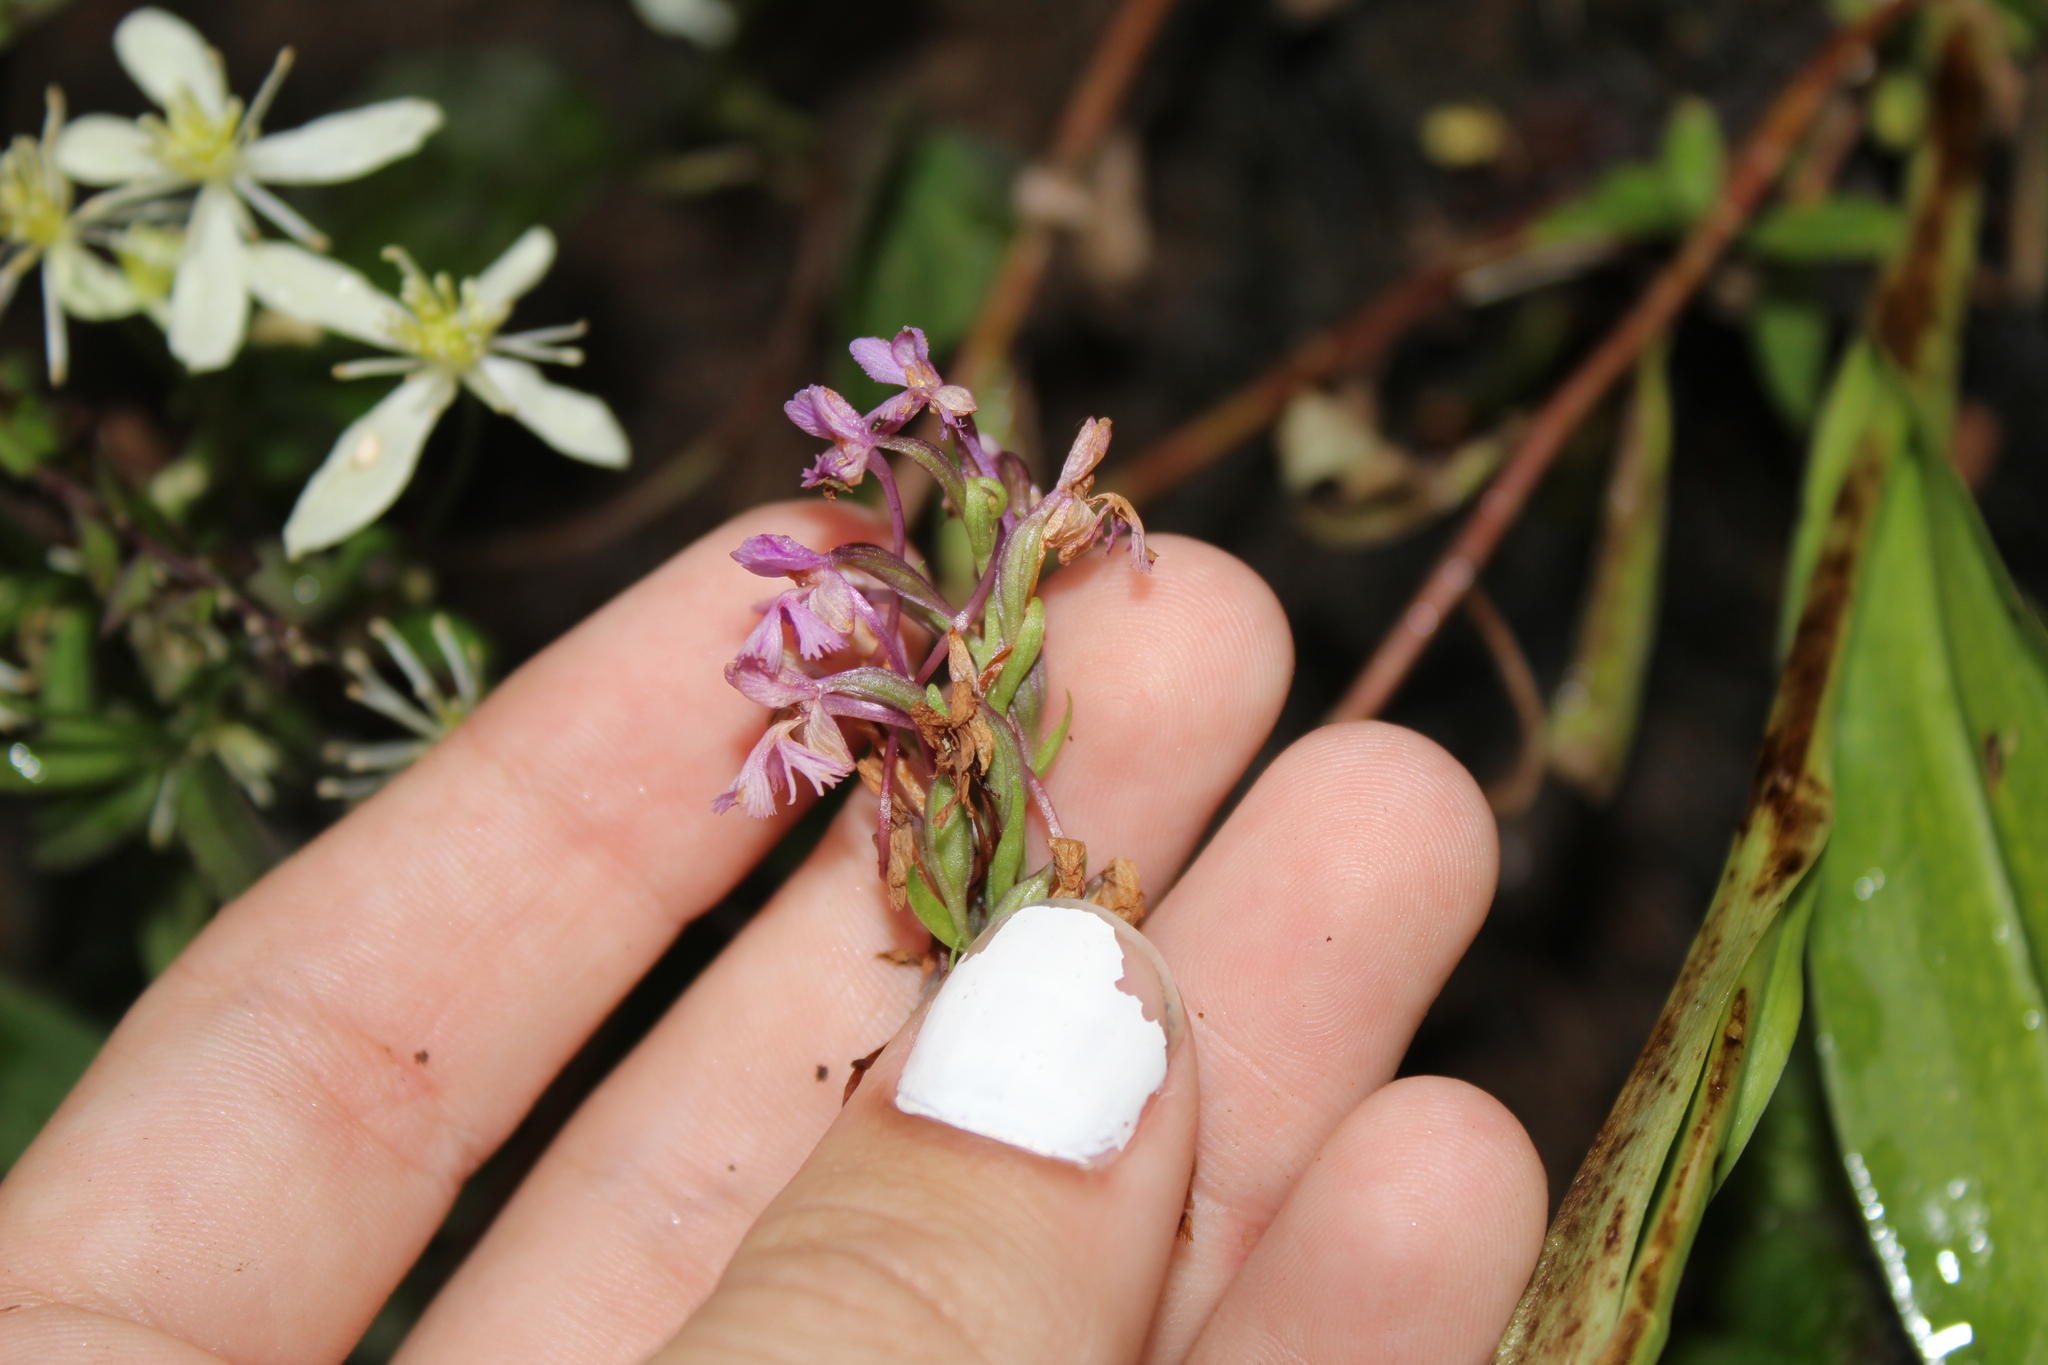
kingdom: Plantae
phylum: Tracheophyta
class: Liliopsida
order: Asparagales
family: Orchidaceae
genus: Platanthera
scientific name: Platanthera psycodes
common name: Lesser purple fringed orchid
